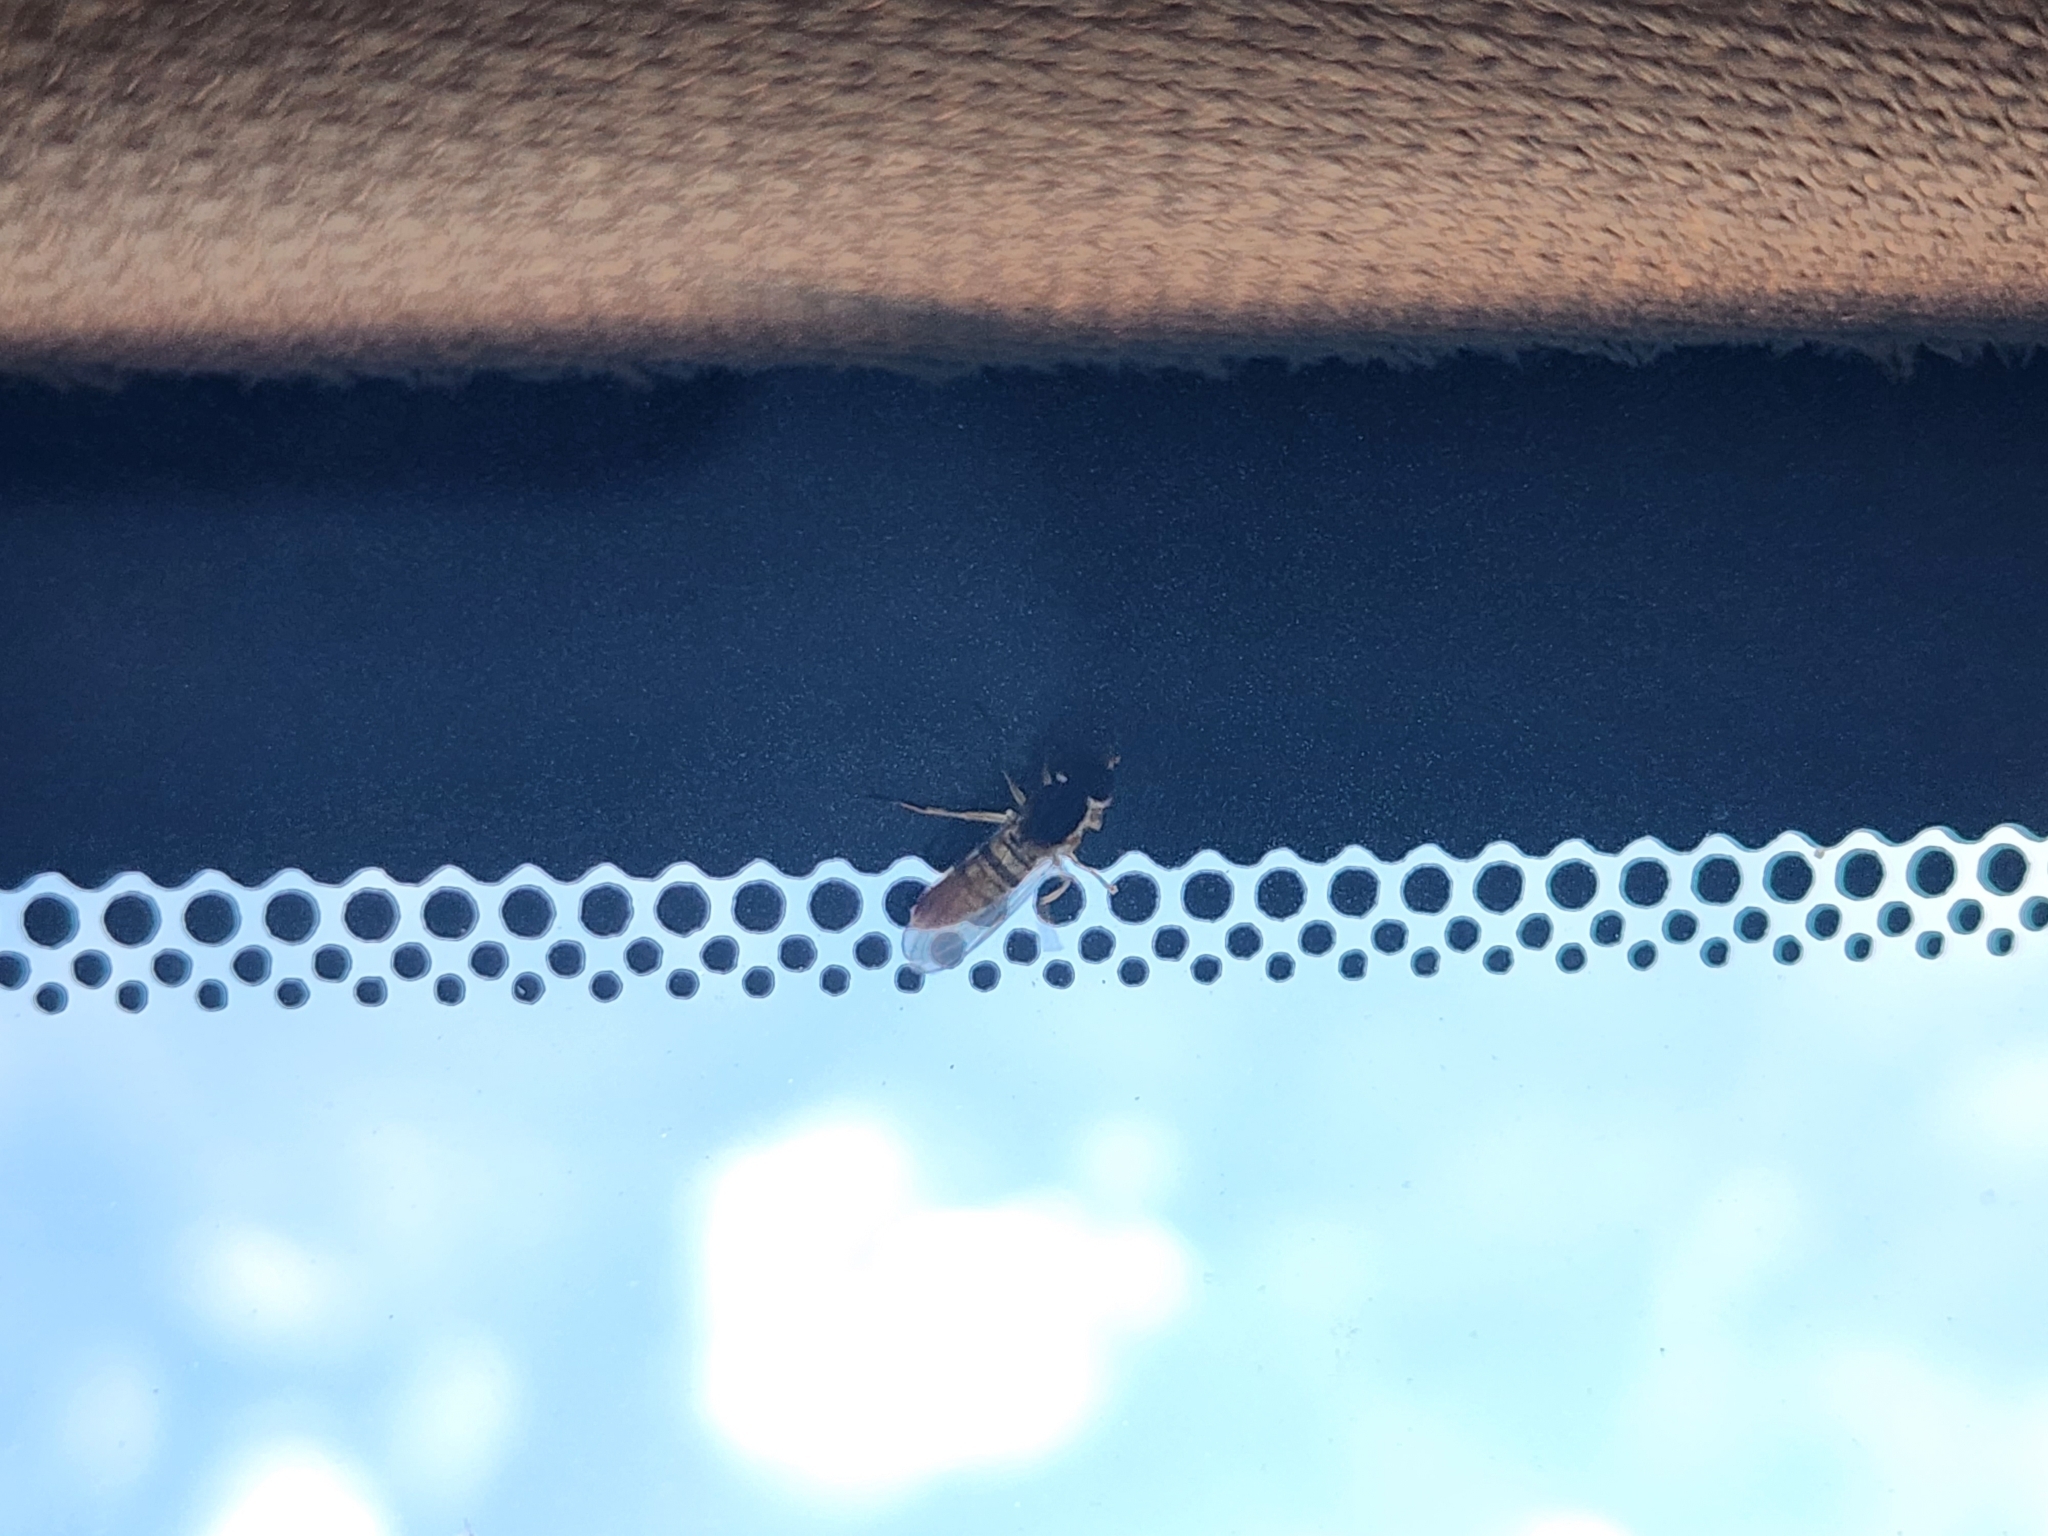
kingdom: Animalia
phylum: Arthropoda
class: Insecta
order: Diptera
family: Syrphidae
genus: Toxomerus
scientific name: Toxomerus politus
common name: Maize calligrapher
